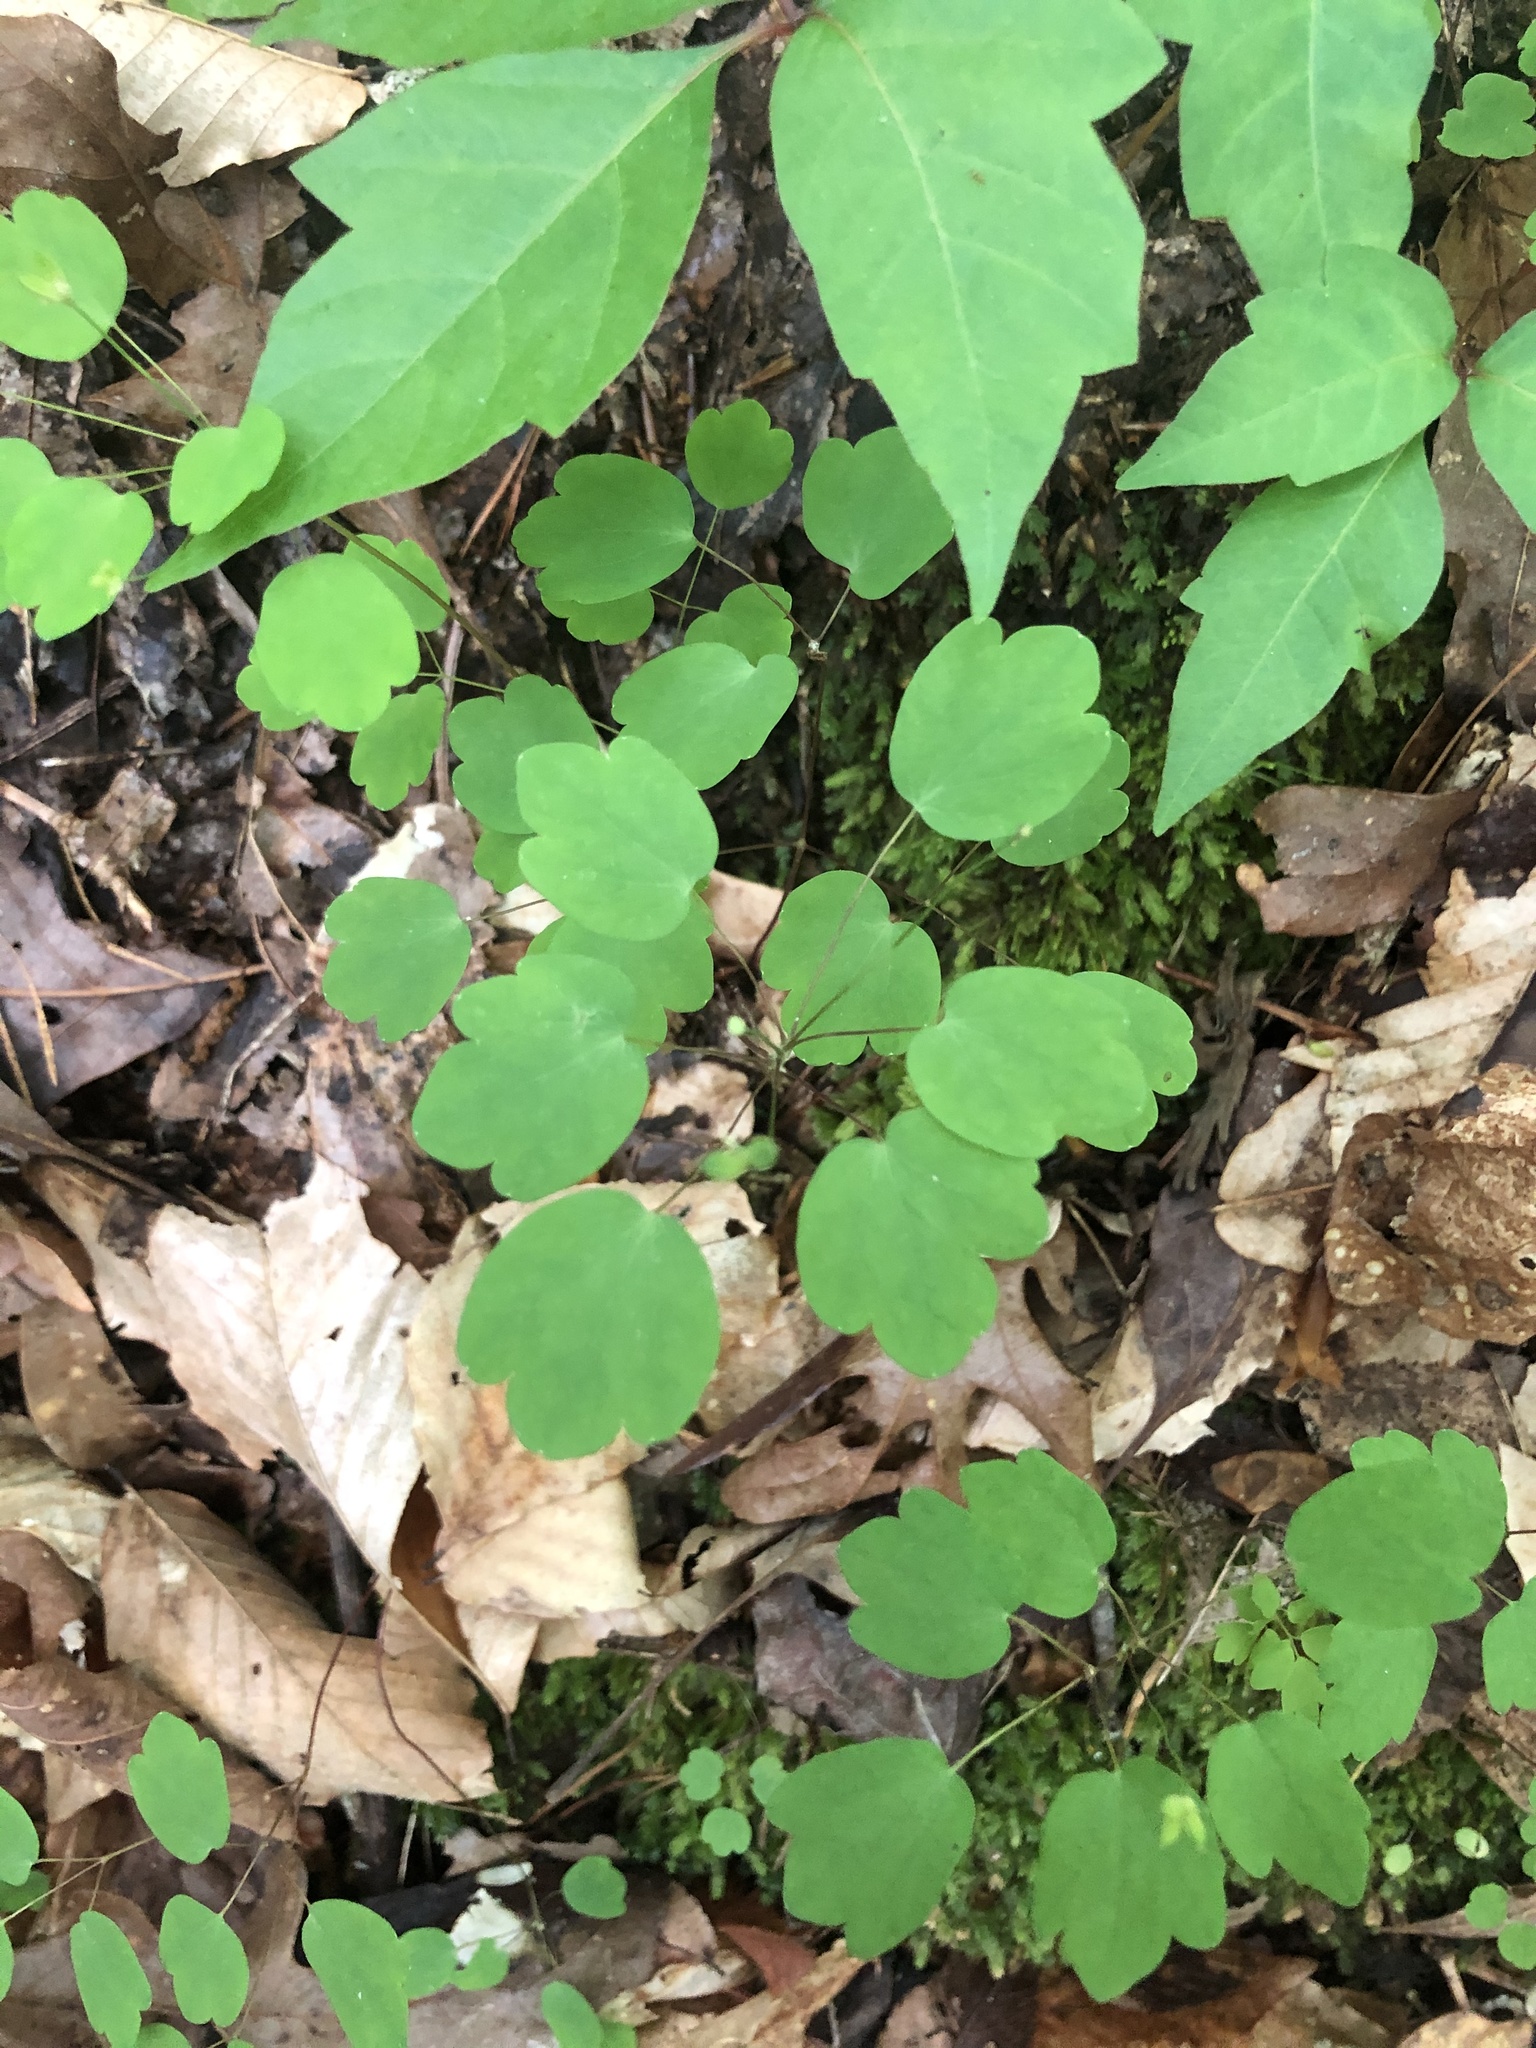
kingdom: Plantae
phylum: Tracheophyta
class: Magnoliopsida
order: Ranunculales
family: Ranunculaceae
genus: Thalictrum
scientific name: Thalictrum thalictroides
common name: Rue-anemone
